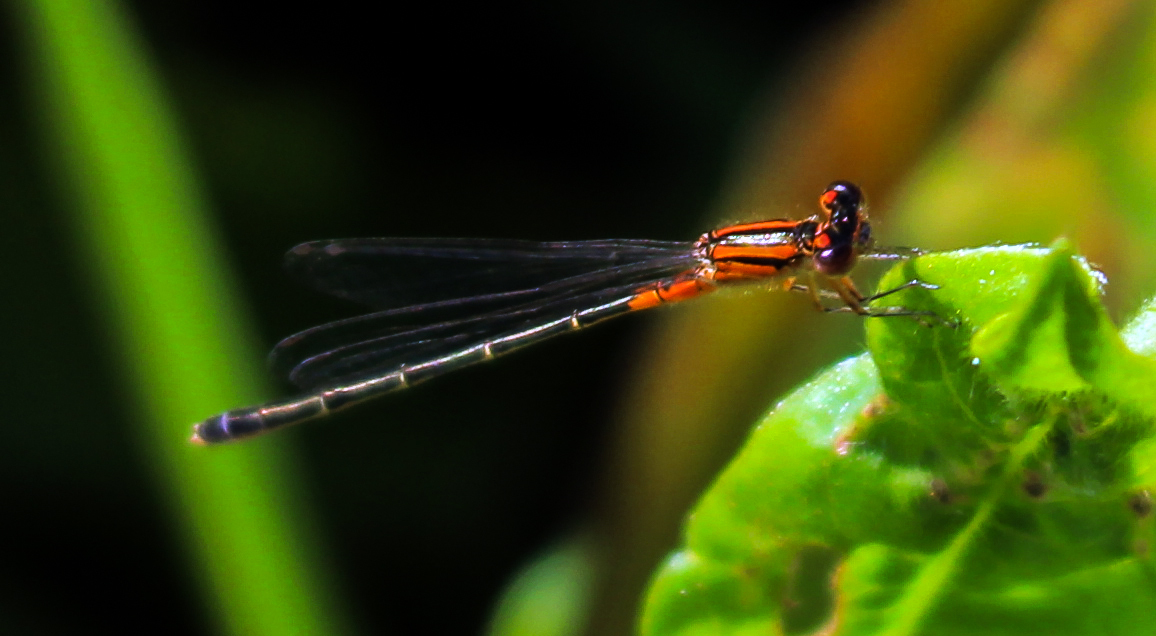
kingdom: Animalia
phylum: Arthropoda
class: Insecta
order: Odonata
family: Coenagrionidae
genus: Ischnura
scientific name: Ischnura verticalis
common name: Eastern forktail
